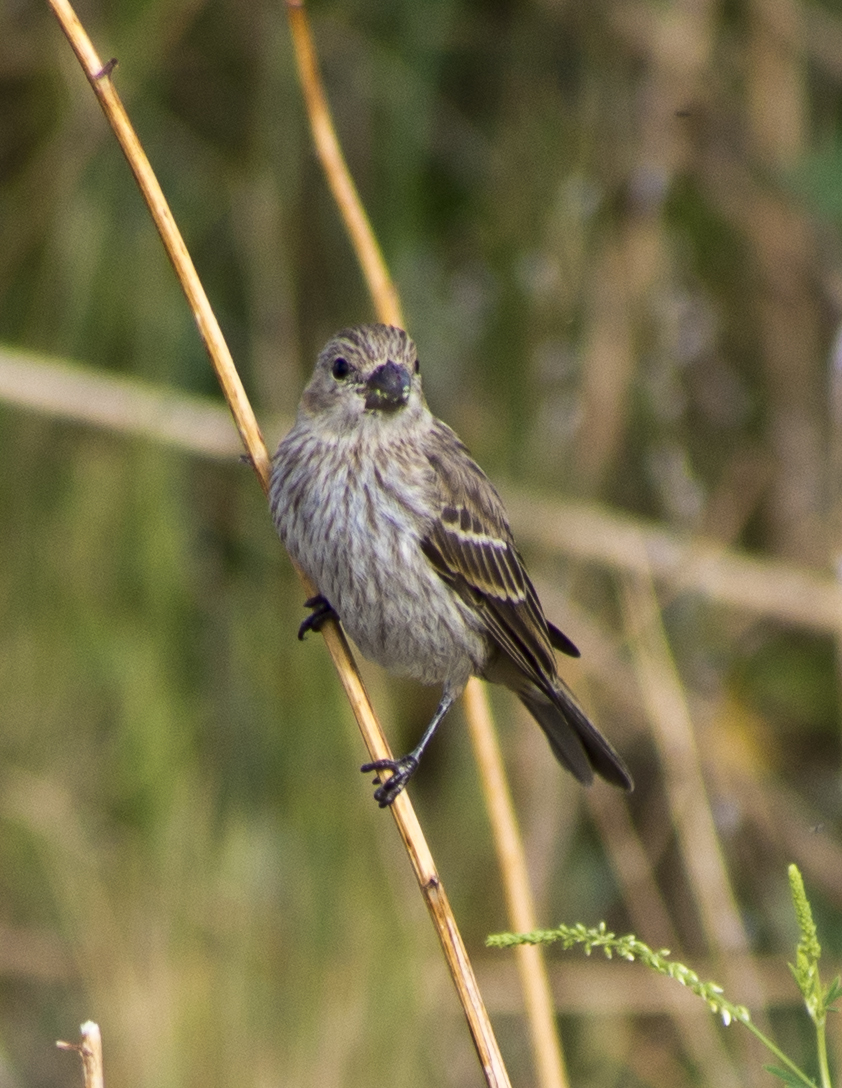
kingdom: Animalia
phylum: Chordata
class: Aves
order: Passeriformes
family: Fringillidae
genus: Haemorhous
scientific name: Haemorhous mexicanus
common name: House finch
